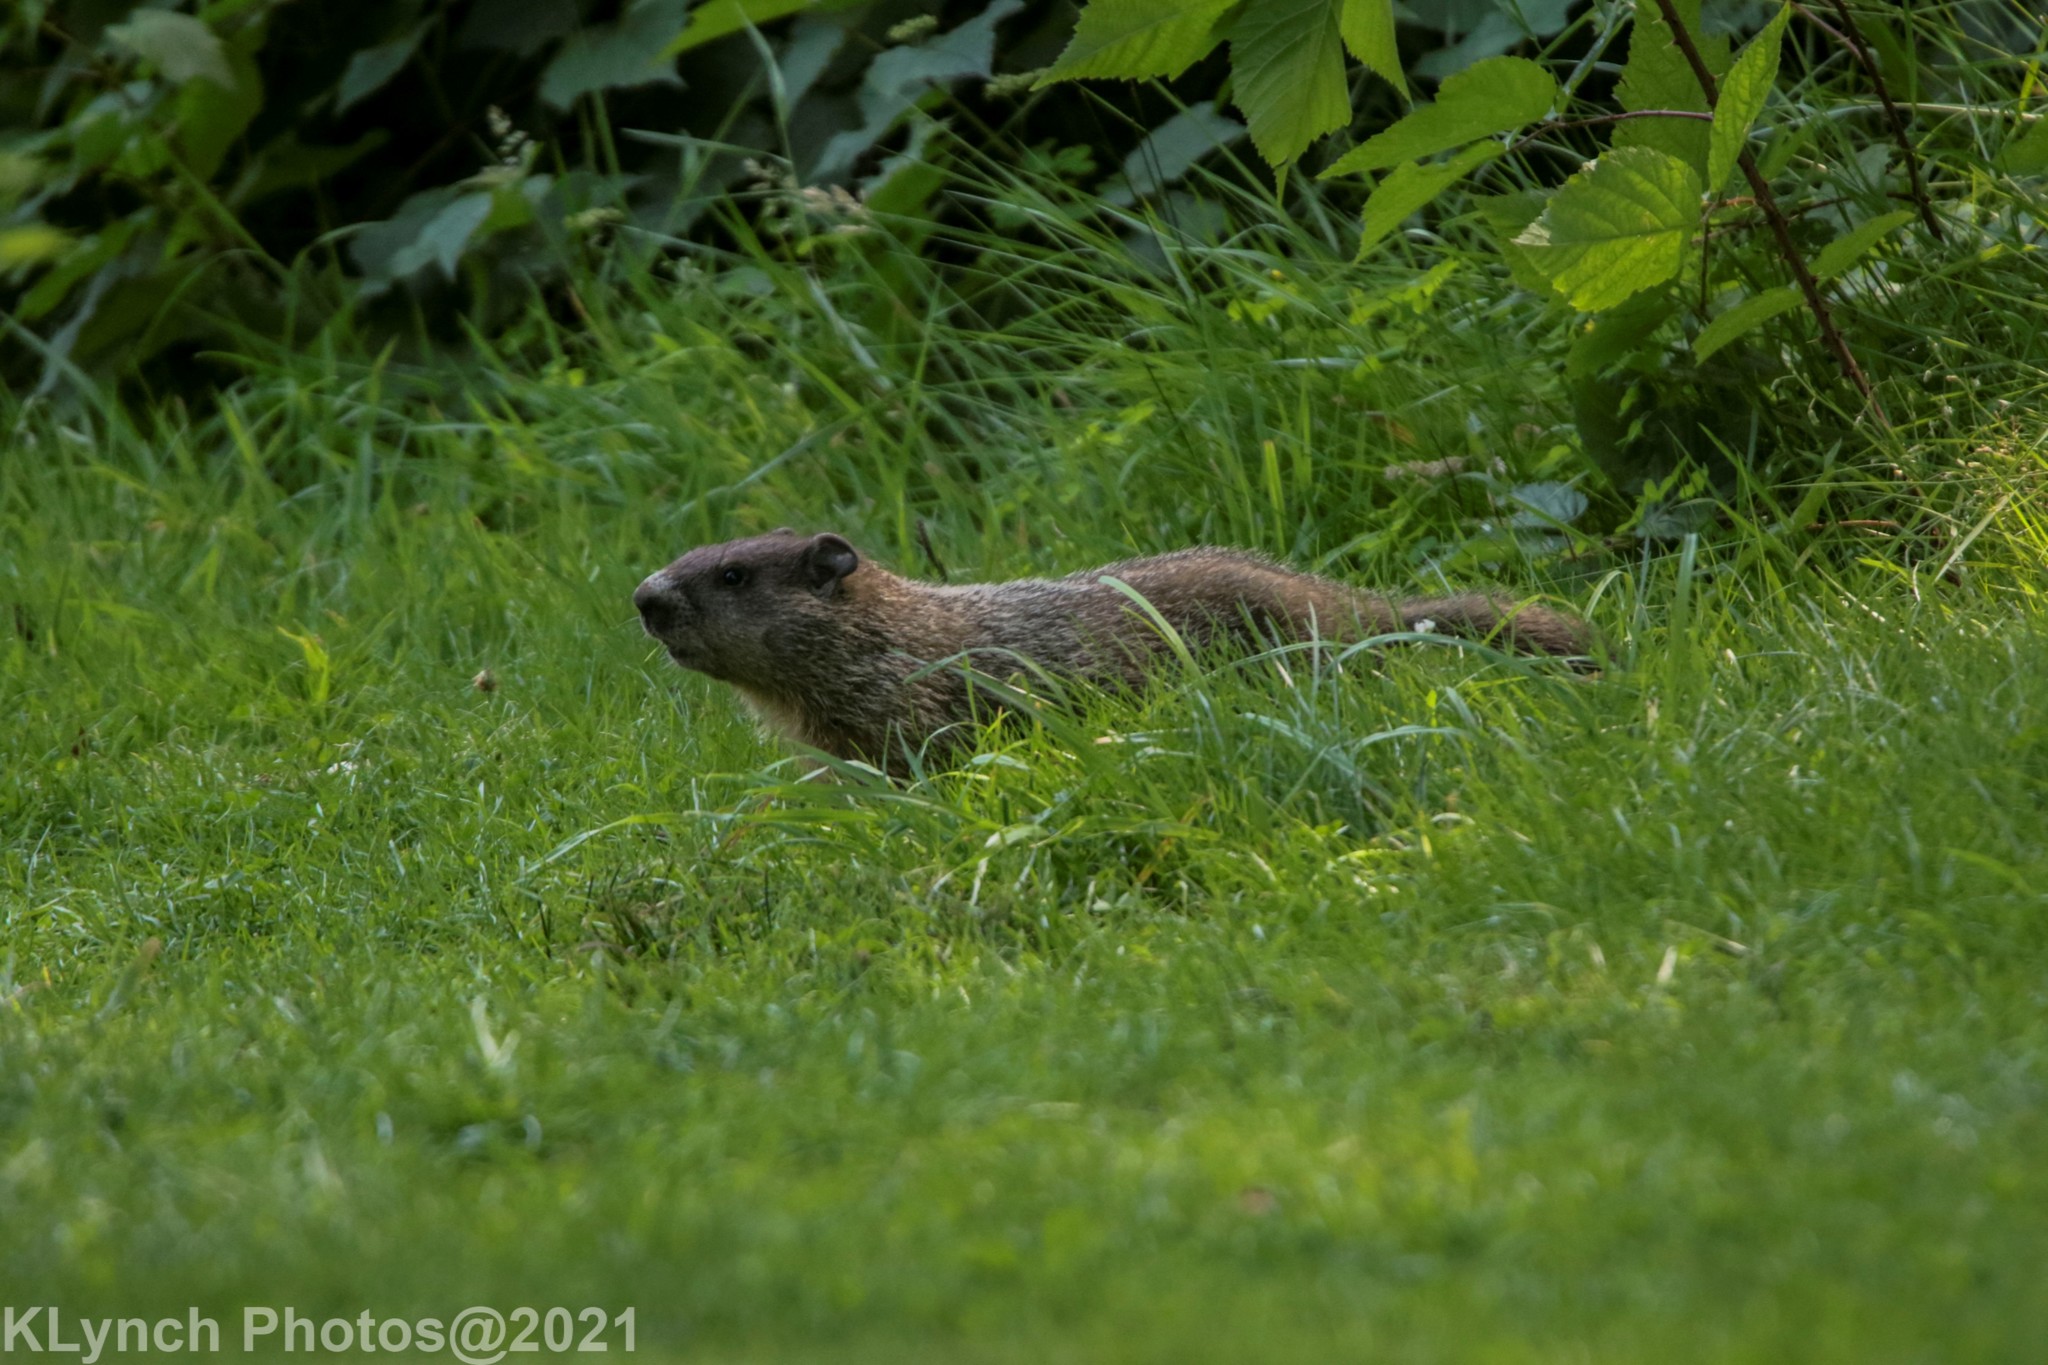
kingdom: Animalia
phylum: Chordata
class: Mammalia
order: Rodentia
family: Sciuridae
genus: Marmota
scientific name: Marmota monax
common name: Groundhog
